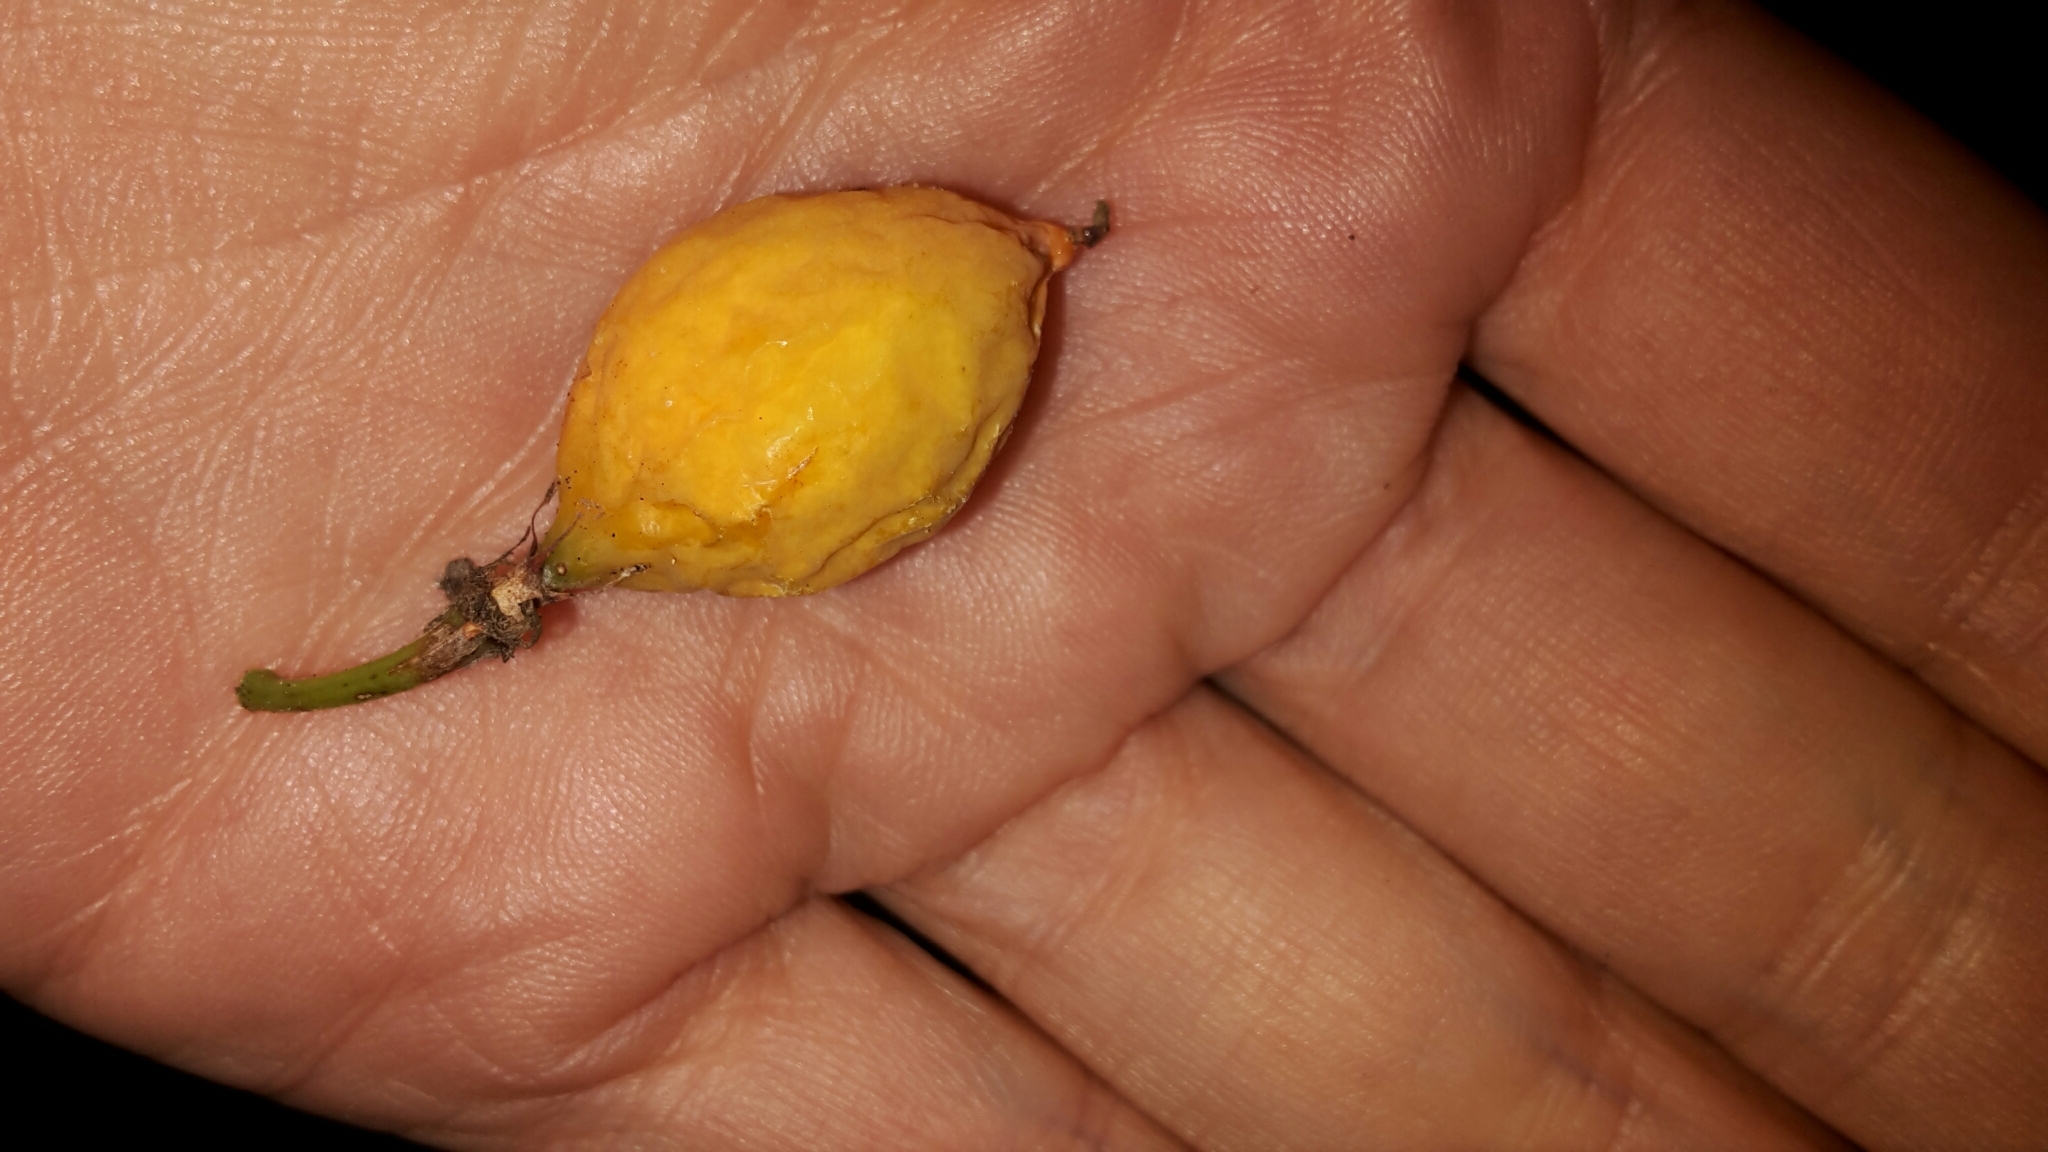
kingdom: Plantae
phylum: Tracheophyta
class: Magnoliopsida
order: Malpighiales
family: Passifloraceae
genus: Passiflora
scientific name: Passiflora tetrandra
